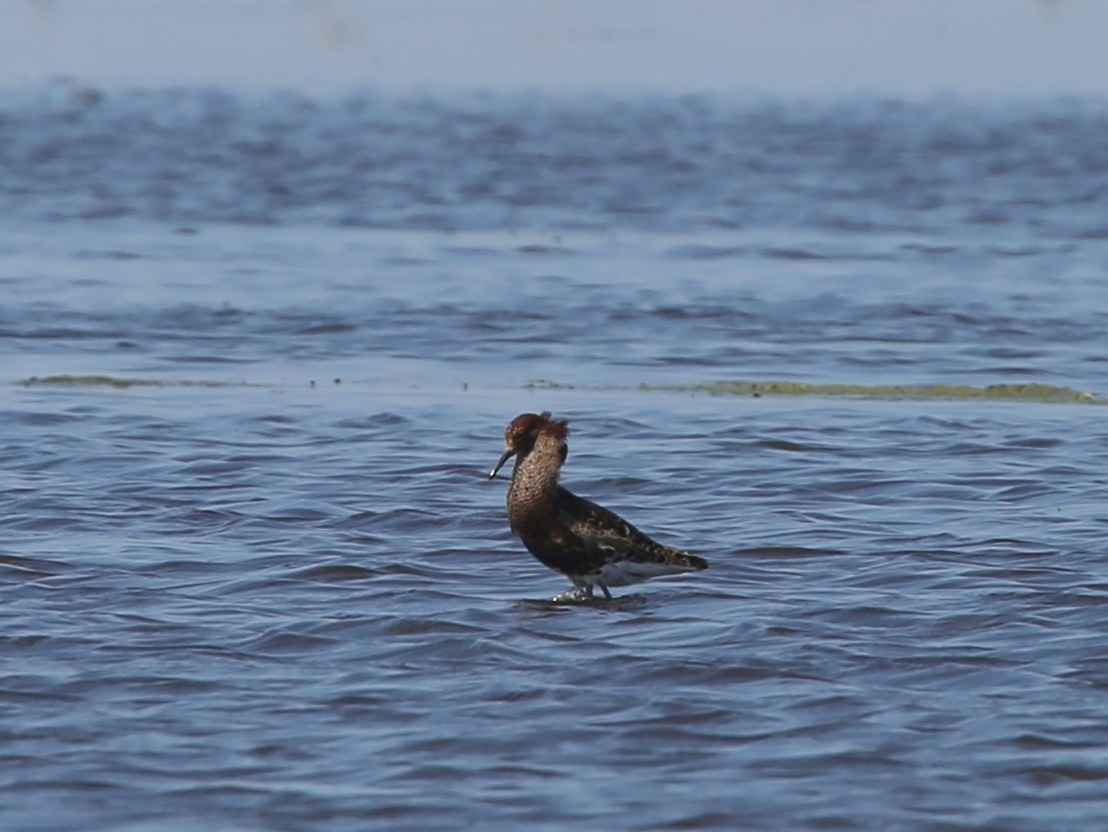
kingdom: Animalia
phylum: Chordata
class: Aves
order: Charadriiformes
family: Scolopacidae
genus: Calidris
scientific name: Calidris pugnax
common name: Ruff
